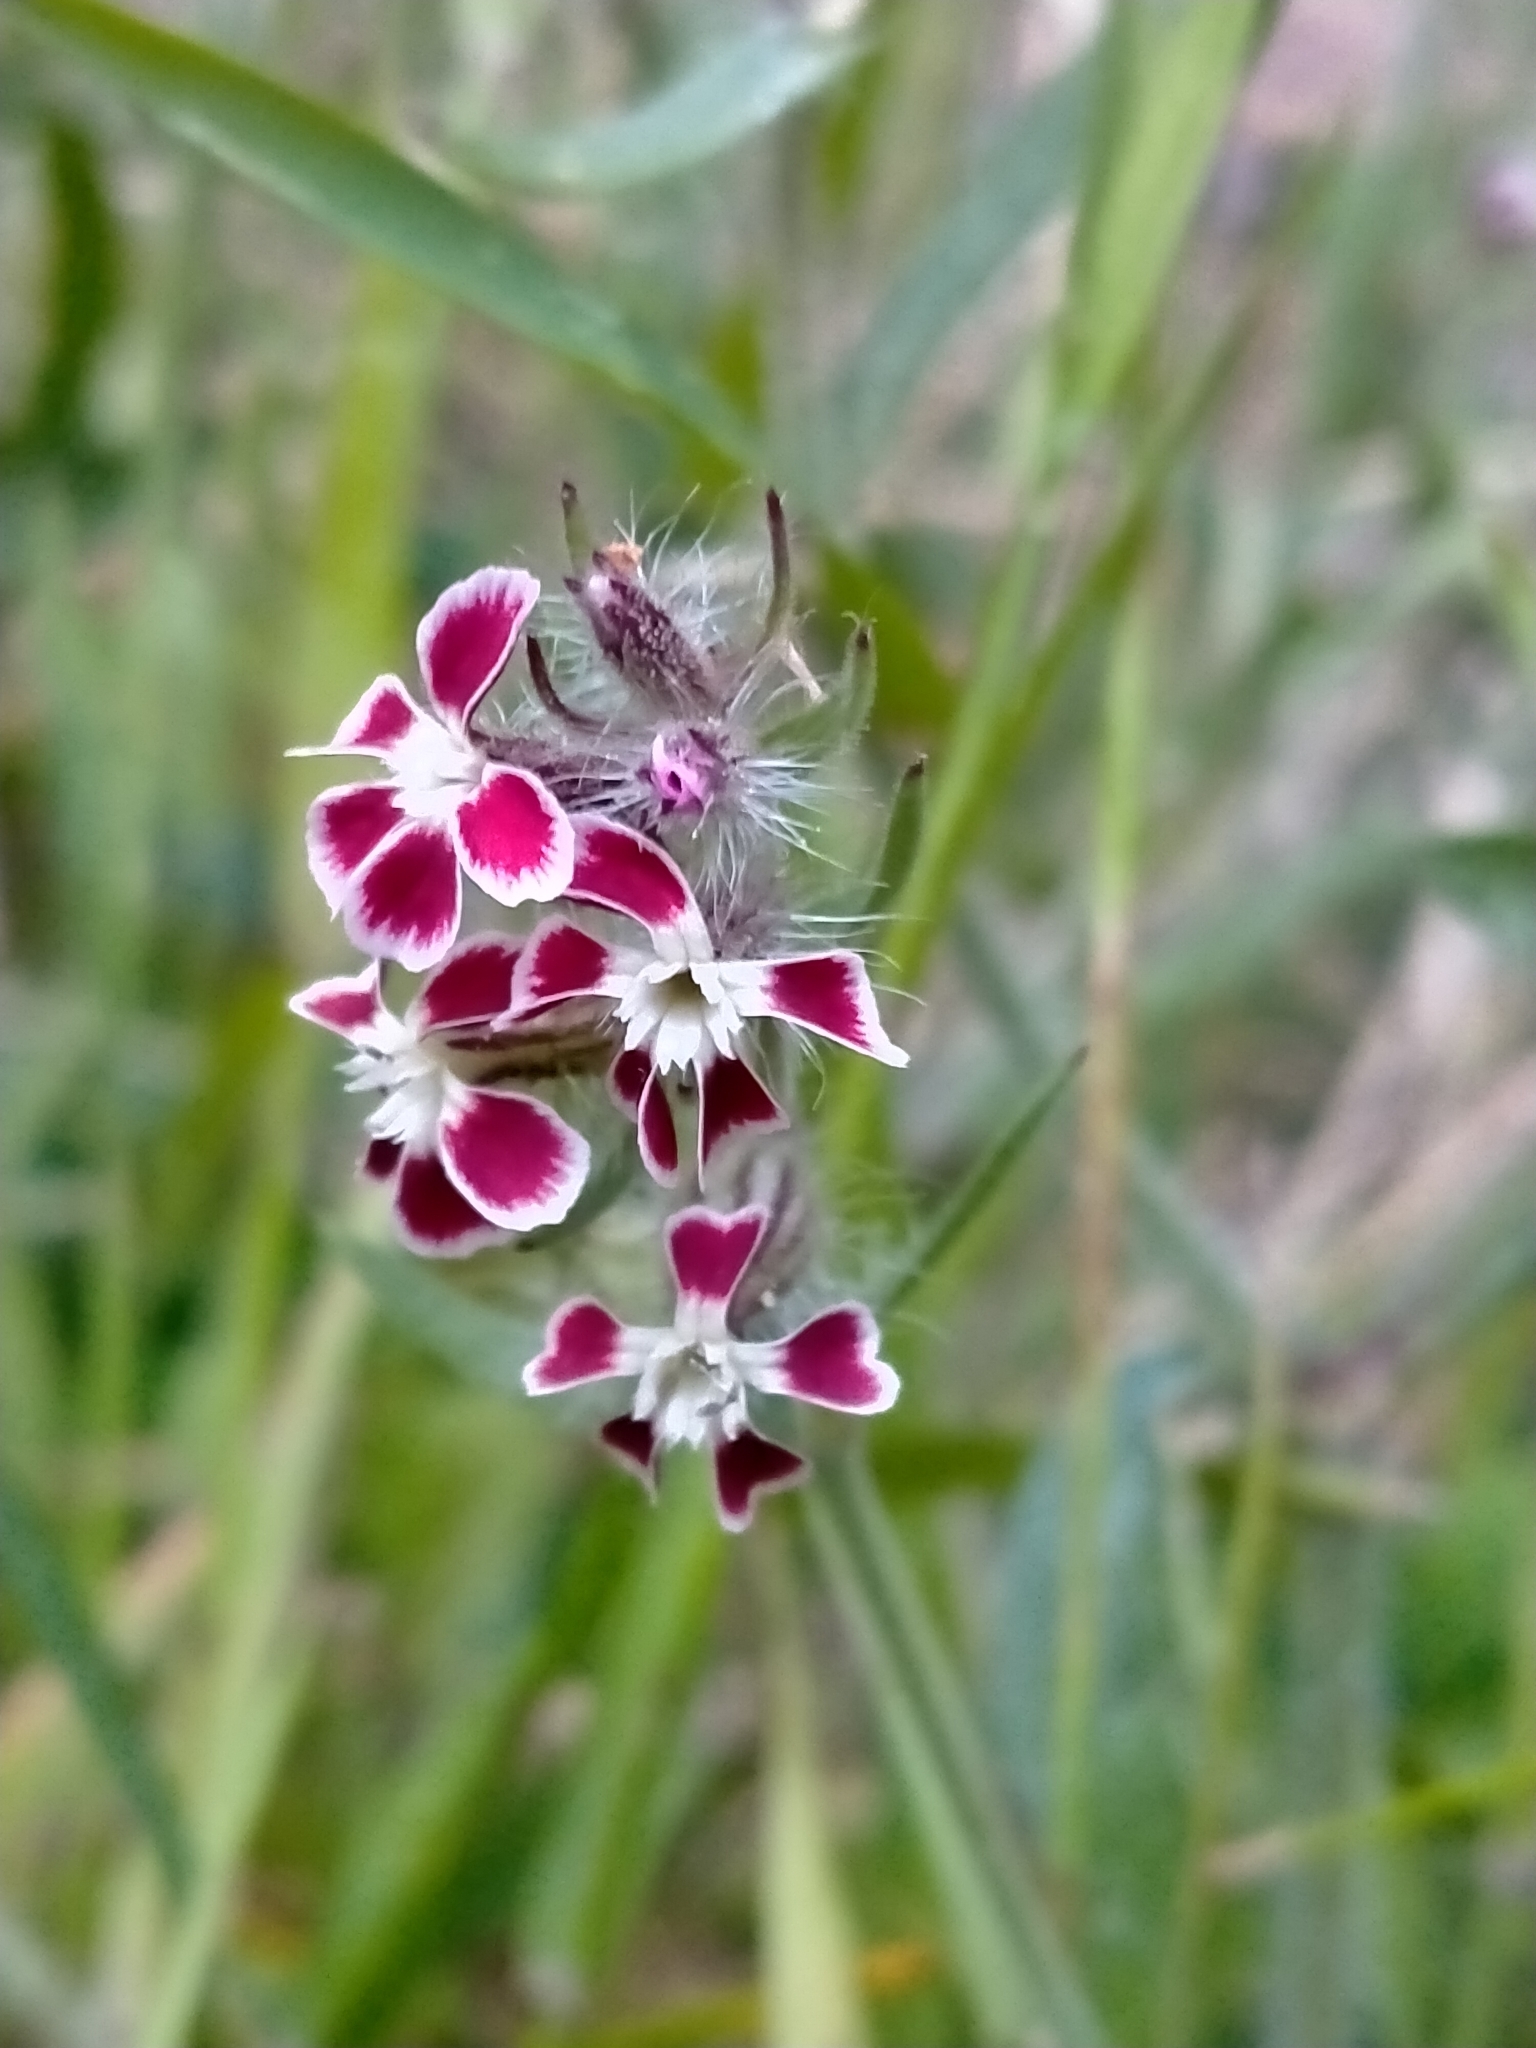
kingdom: Plantae
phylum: Tracheophyta
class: Magnoliopsida
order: Caryophyllales
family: Caryophyllaceae
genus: Silene
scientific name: Silene gallica
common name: Small-flowered catchfly
